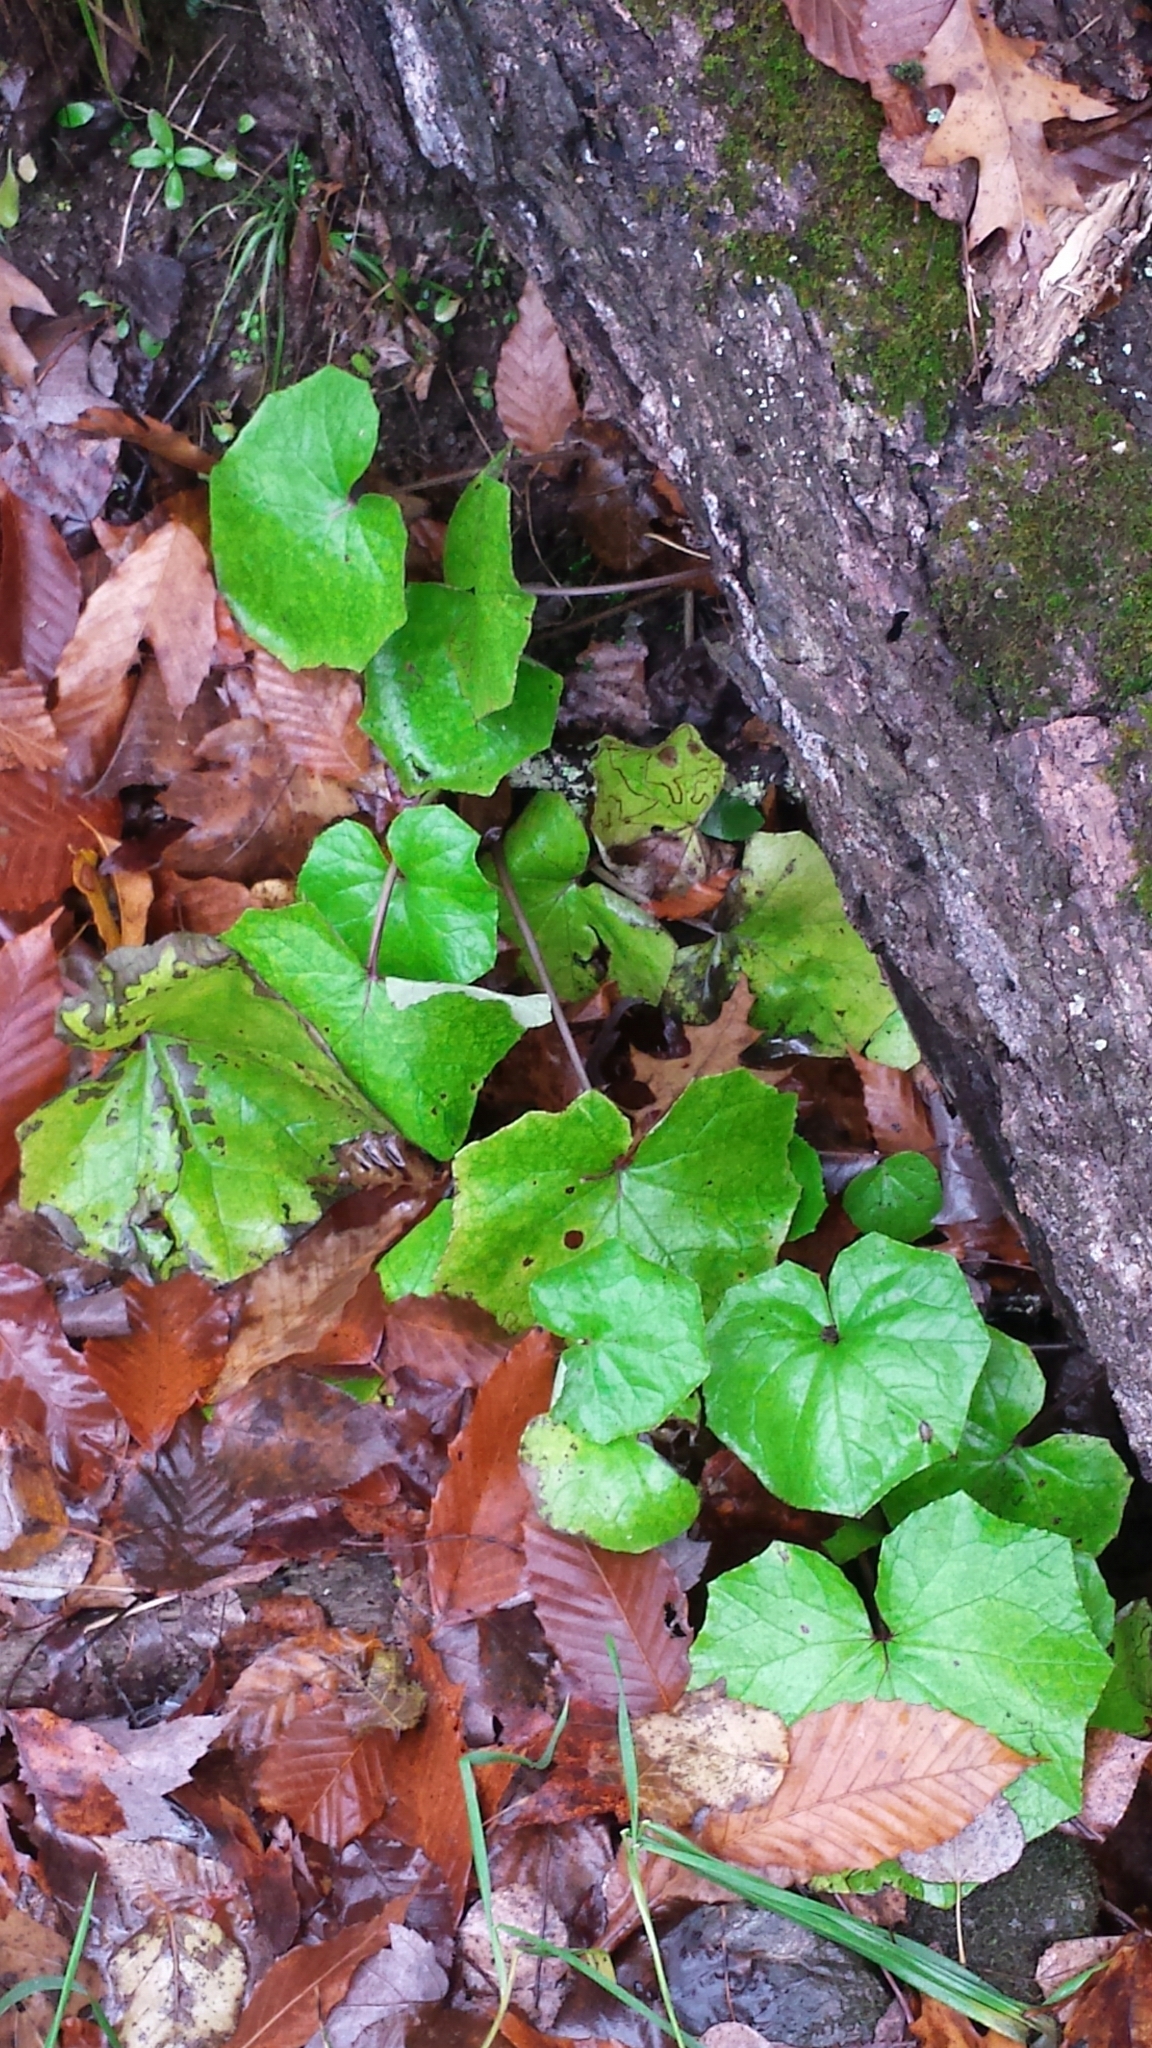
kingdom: Plantae
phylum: Tracheophyta
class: Magnoliopsida
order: Asterales
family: Asteraceae
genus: Tussilago
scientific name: Tussilago farfara
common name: Coltsfoot
